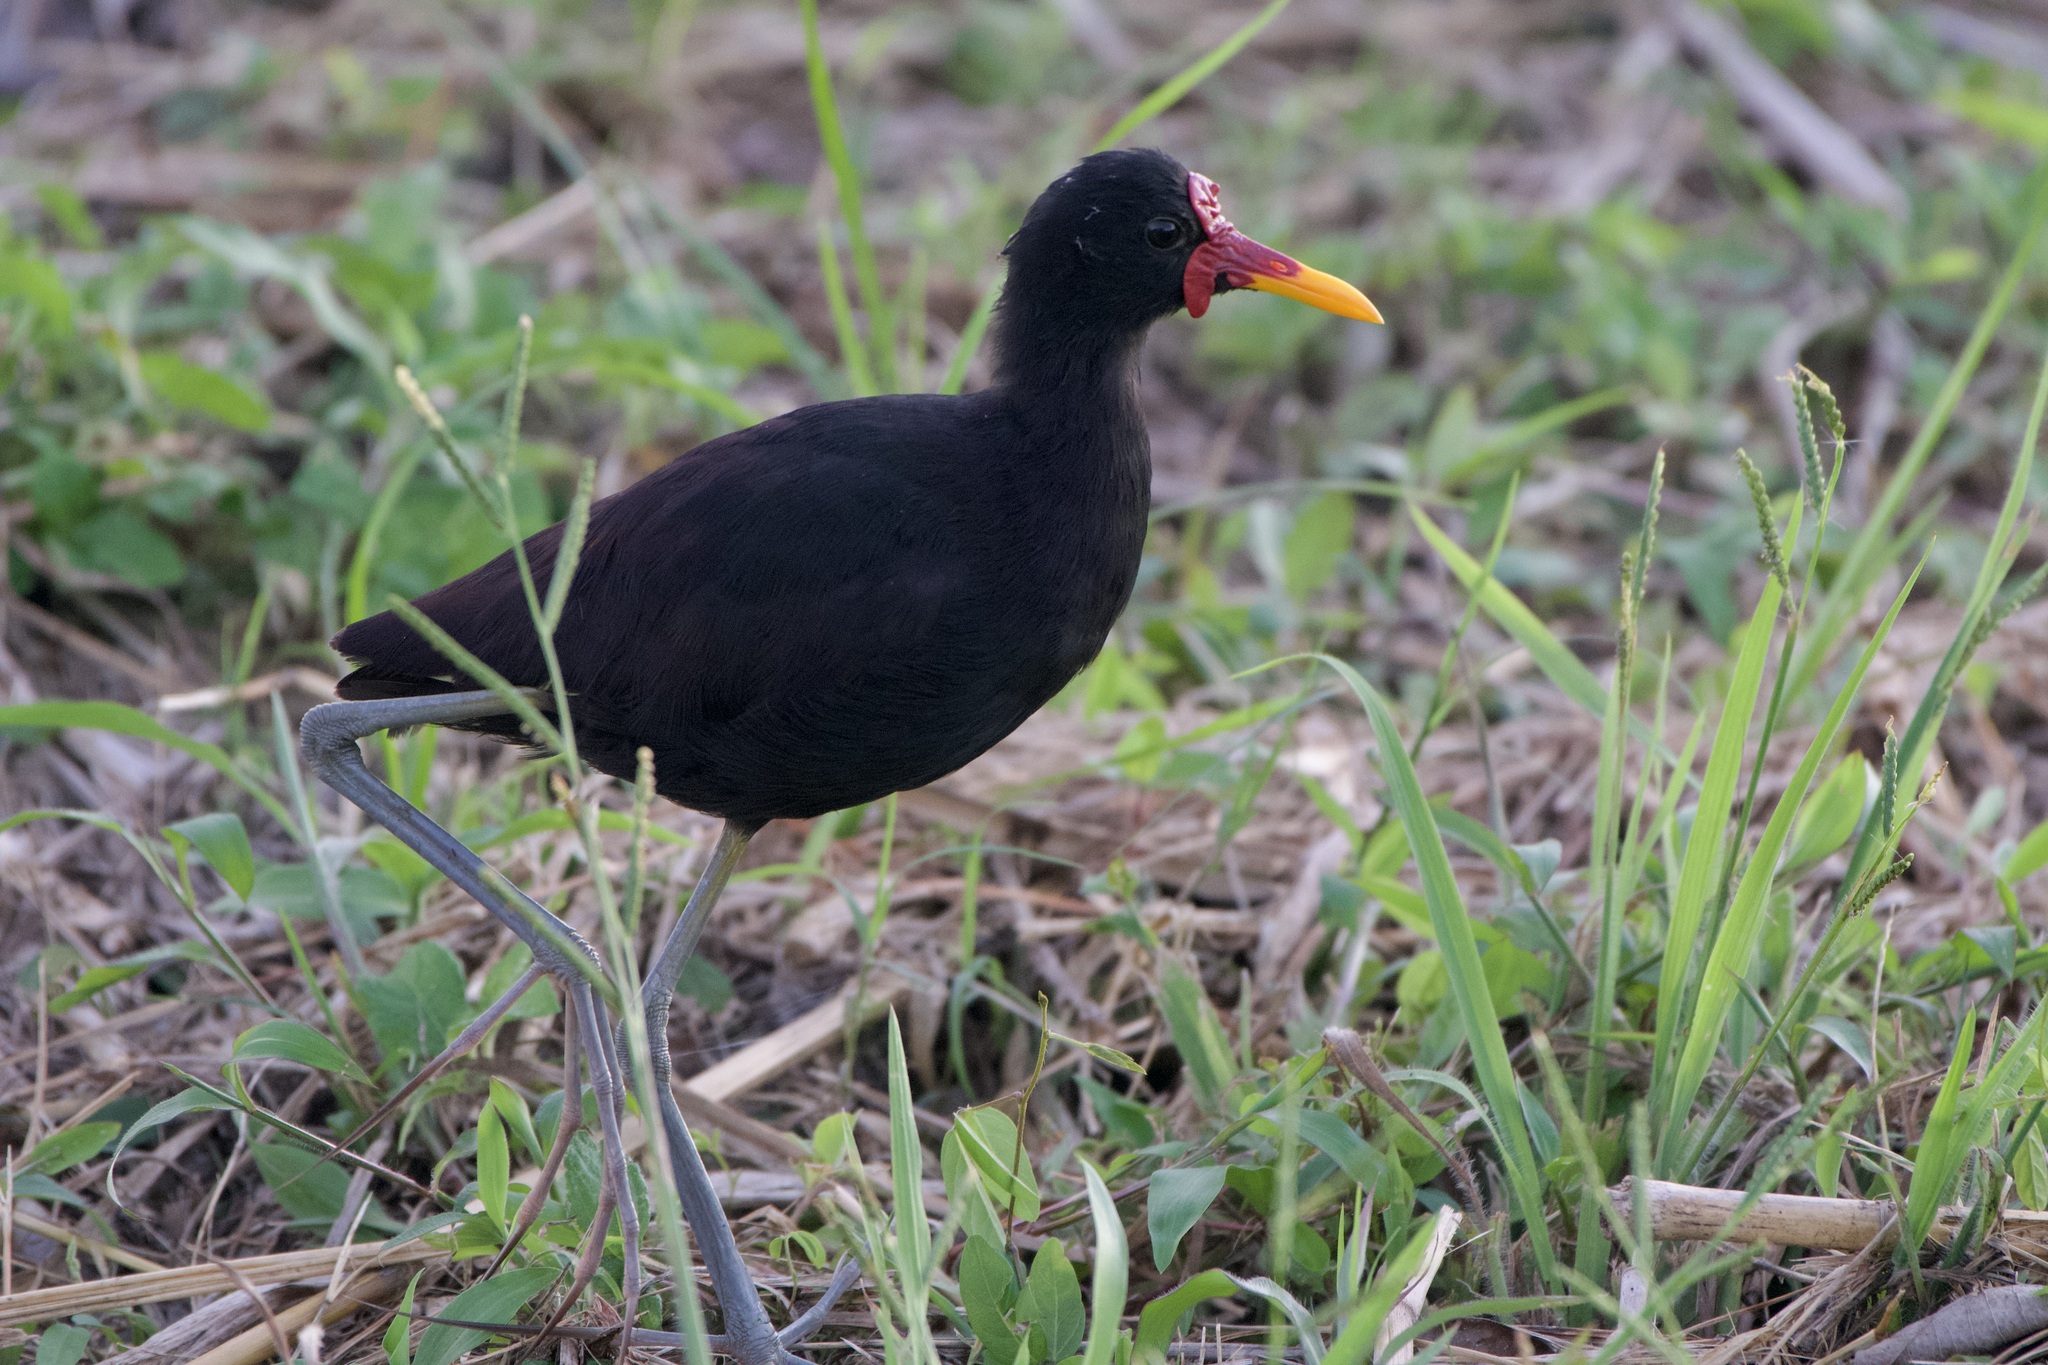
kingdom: Animalia
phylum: Chordata
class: Aves
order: Charadriiformes
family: Jacanidae
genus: Jacana
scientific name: Jacana jacana
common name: Wattled jacana
